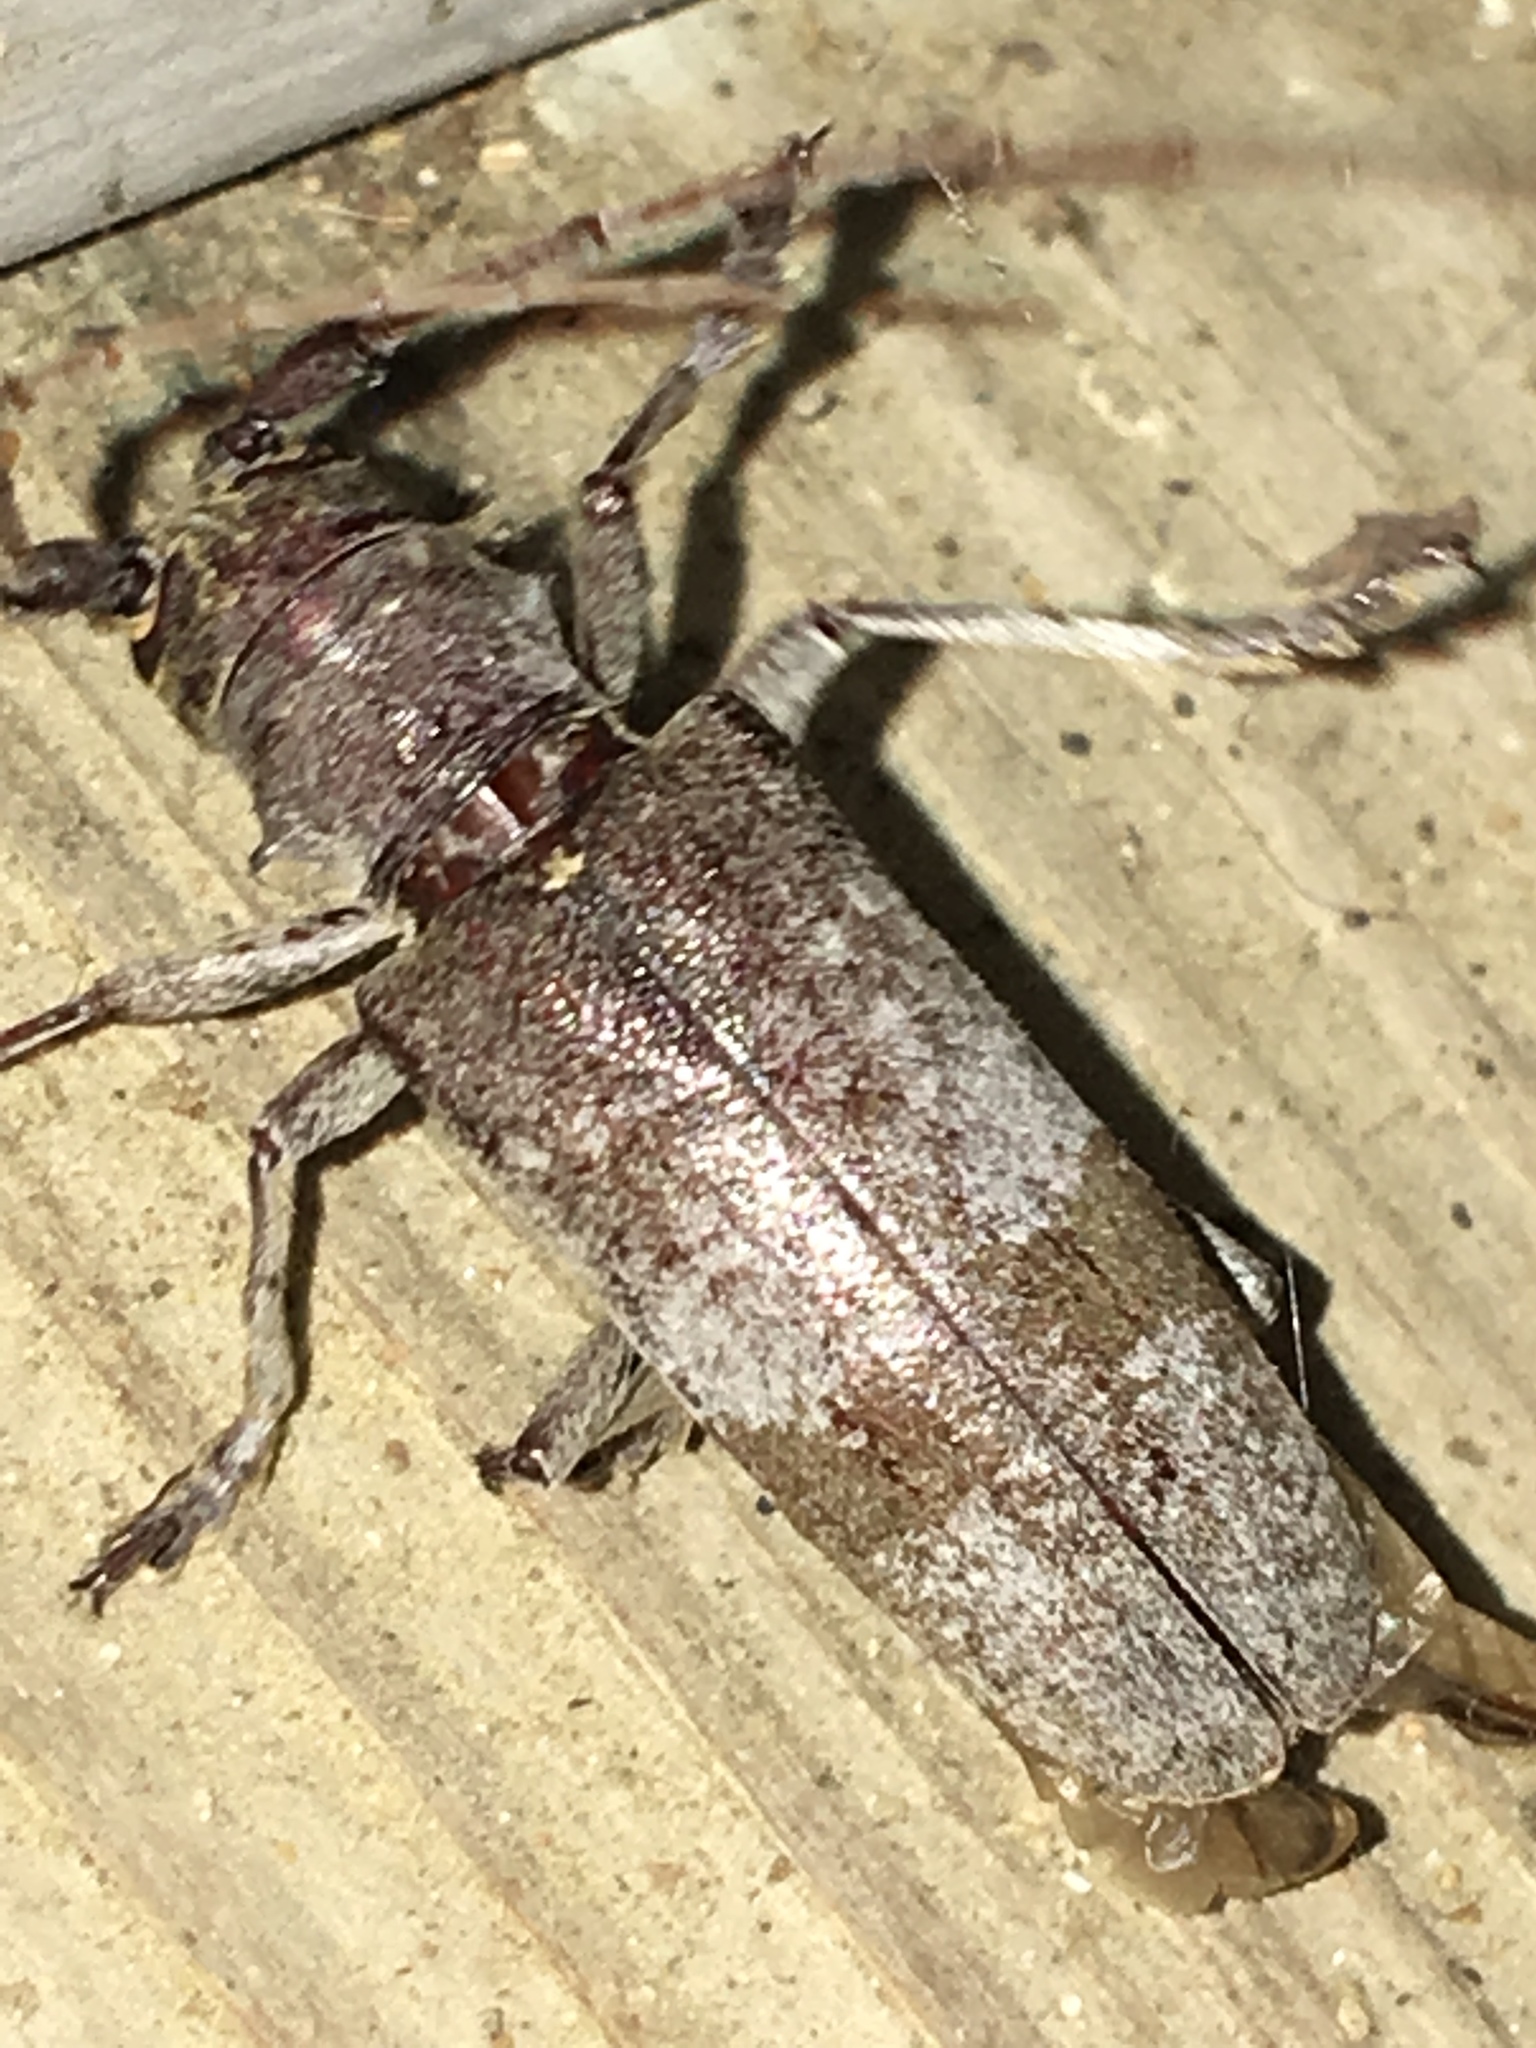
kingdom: Animalia
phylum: Arthropoda
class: Insecta
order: Coleoptera
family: Cerambycidae
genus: Goes
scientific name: Goes pulverulentus
